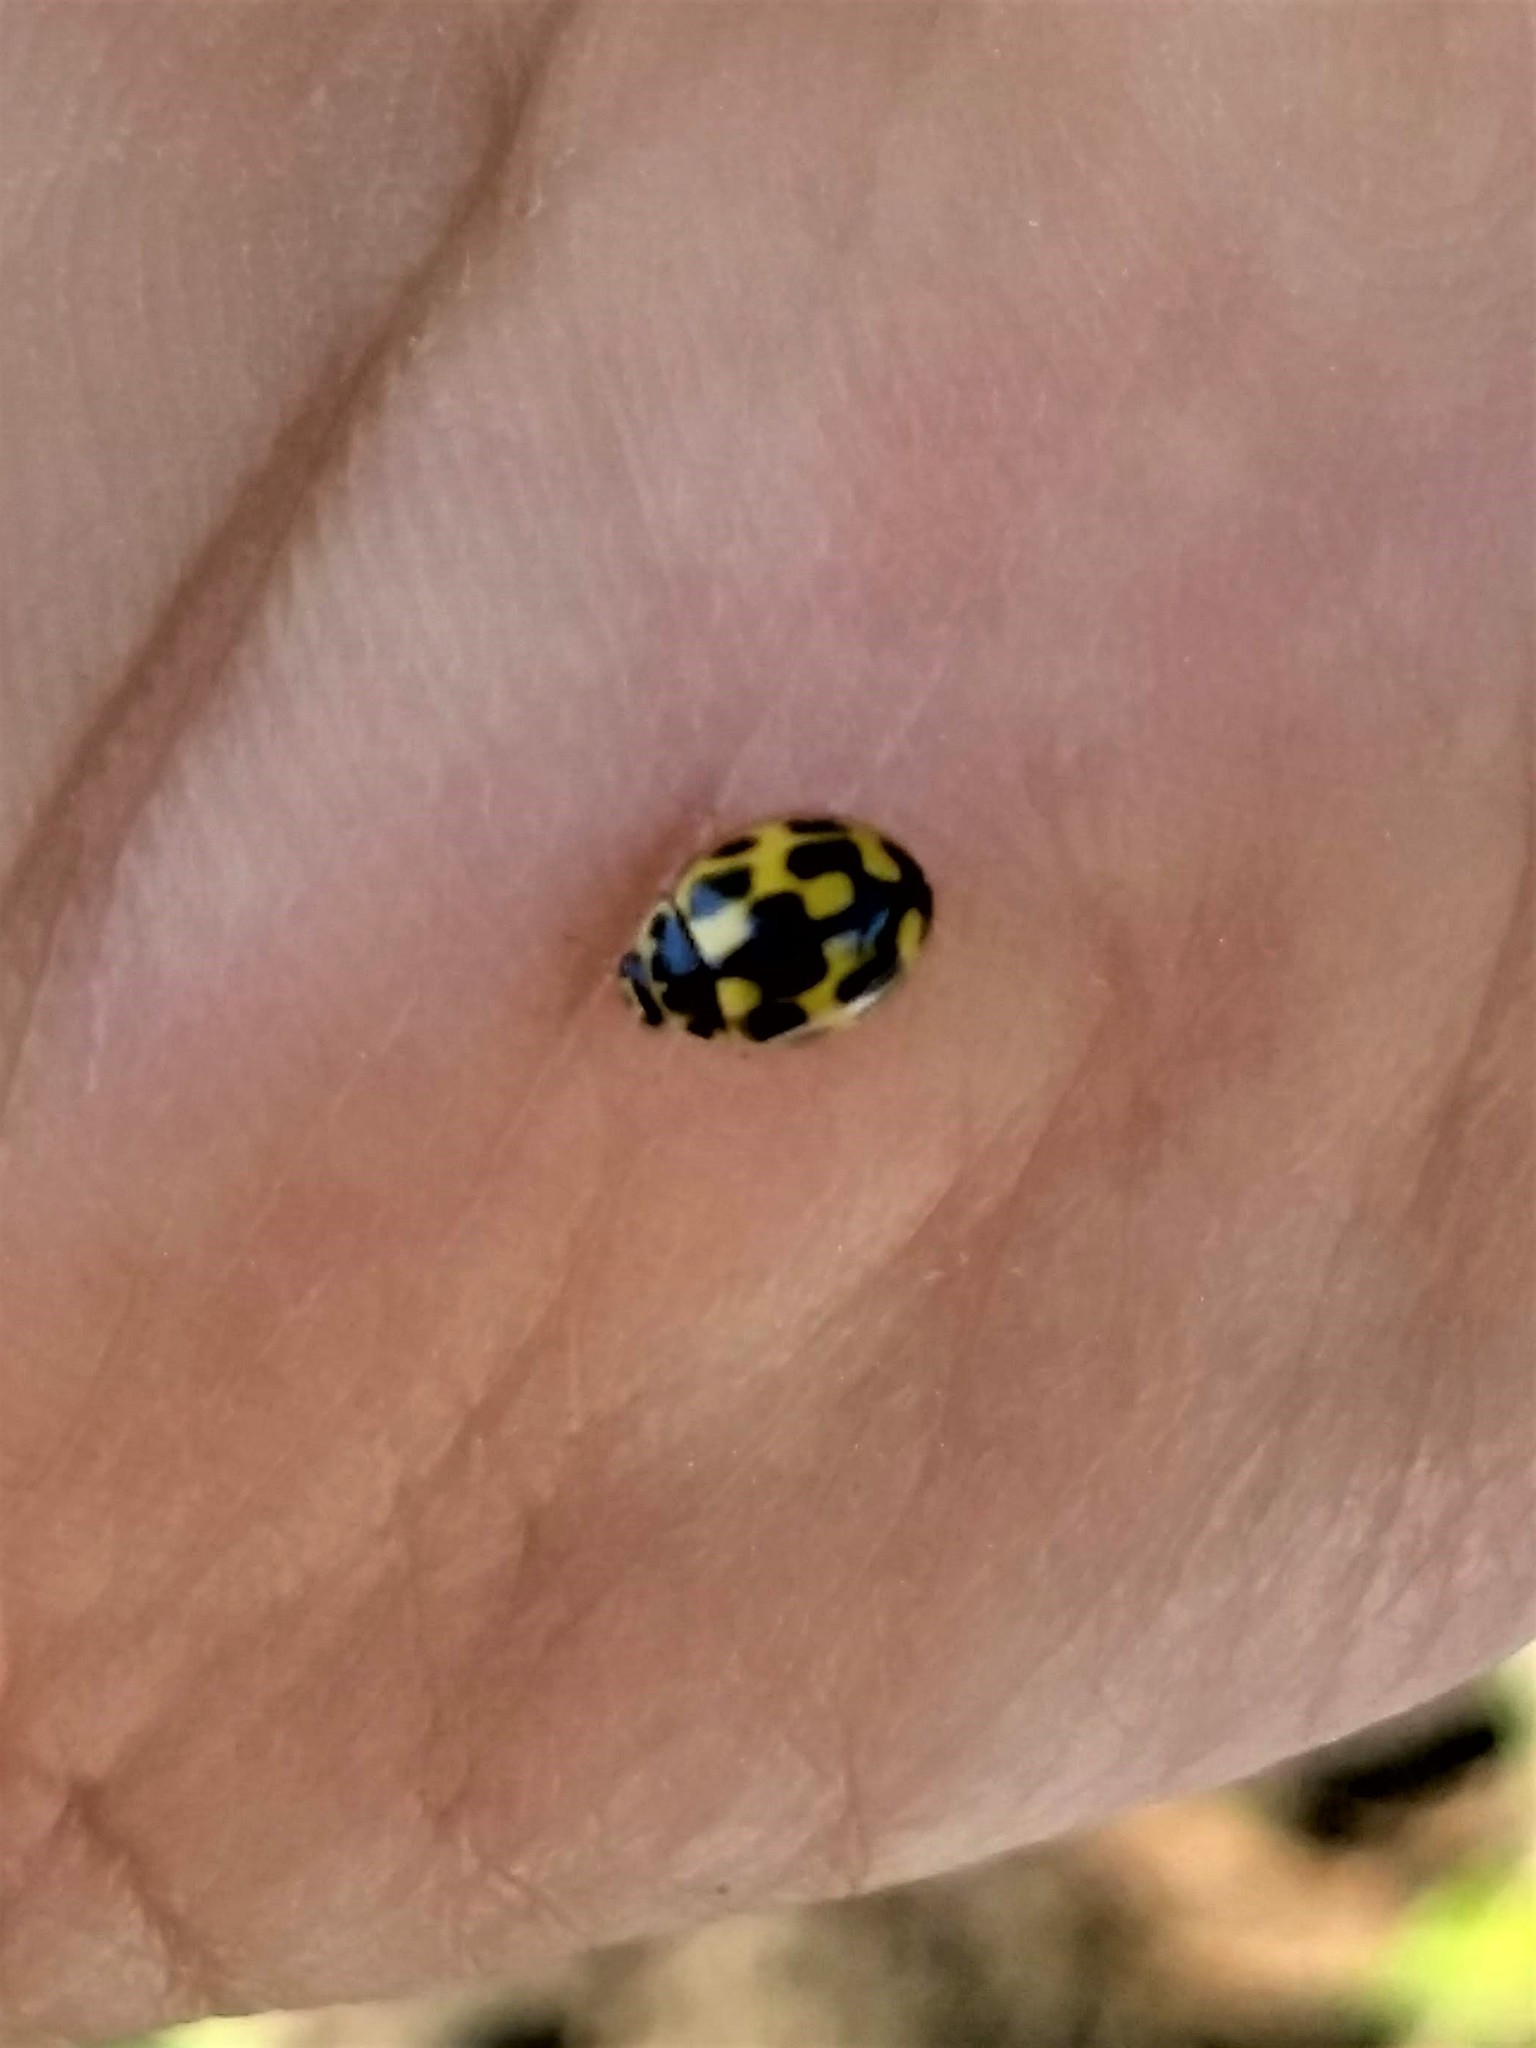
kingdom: Animalia
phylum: Arthropoda
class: Insecta
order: Coleoptera
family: Coccinellidae
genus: Propylaea
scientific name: Propylaea quatuordecimpunctata
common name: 14-spotted ladybird beetle
